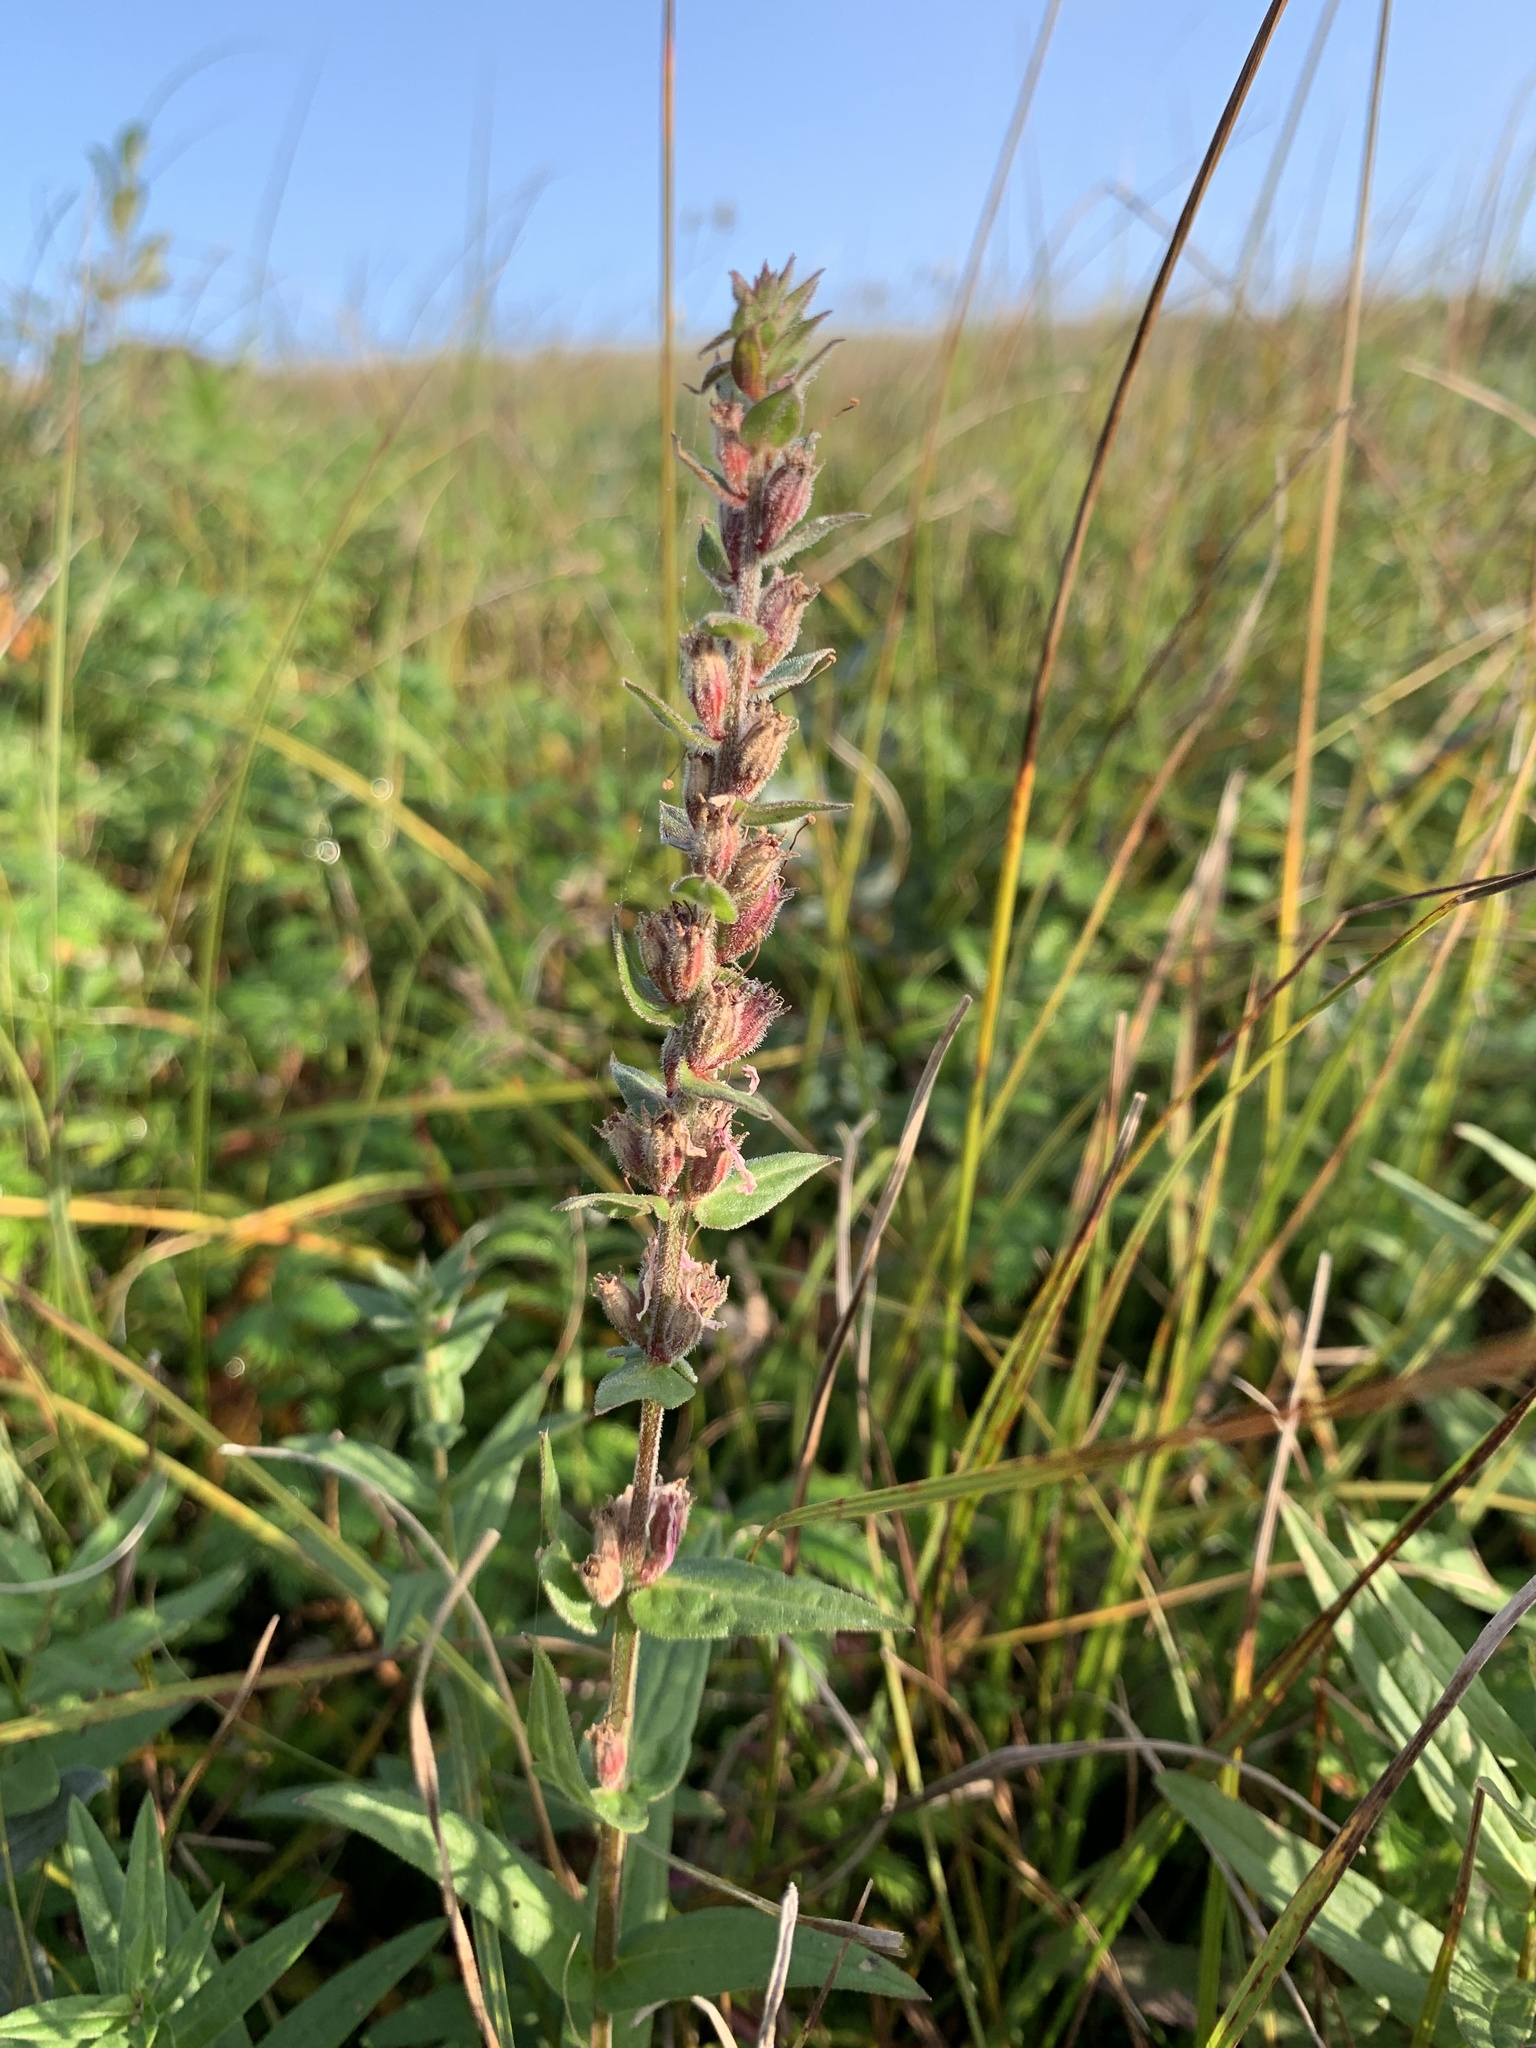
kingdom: Plantae
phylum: Tracheophyta
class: Magnoliopsida
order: Myrtales
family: Lythraceae
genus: Lythrum
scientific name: Lythrum salicaria
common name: Purple loosestrife
